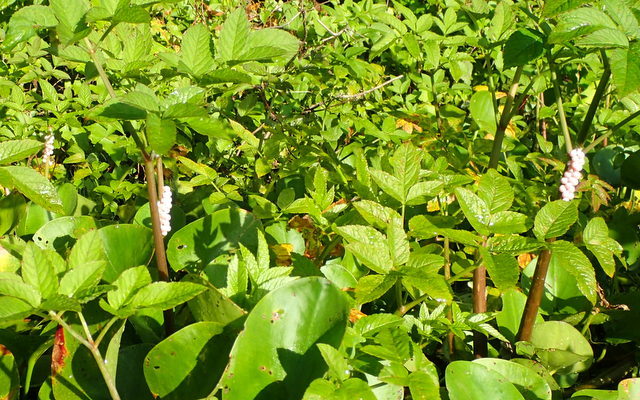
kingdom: Animalia
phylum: Mollusca
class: Gastropoda
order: Architaenioglossa
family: Ampullariidae
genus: Pomacea
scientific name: Pomacea paludosa
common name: Florida applesnail
